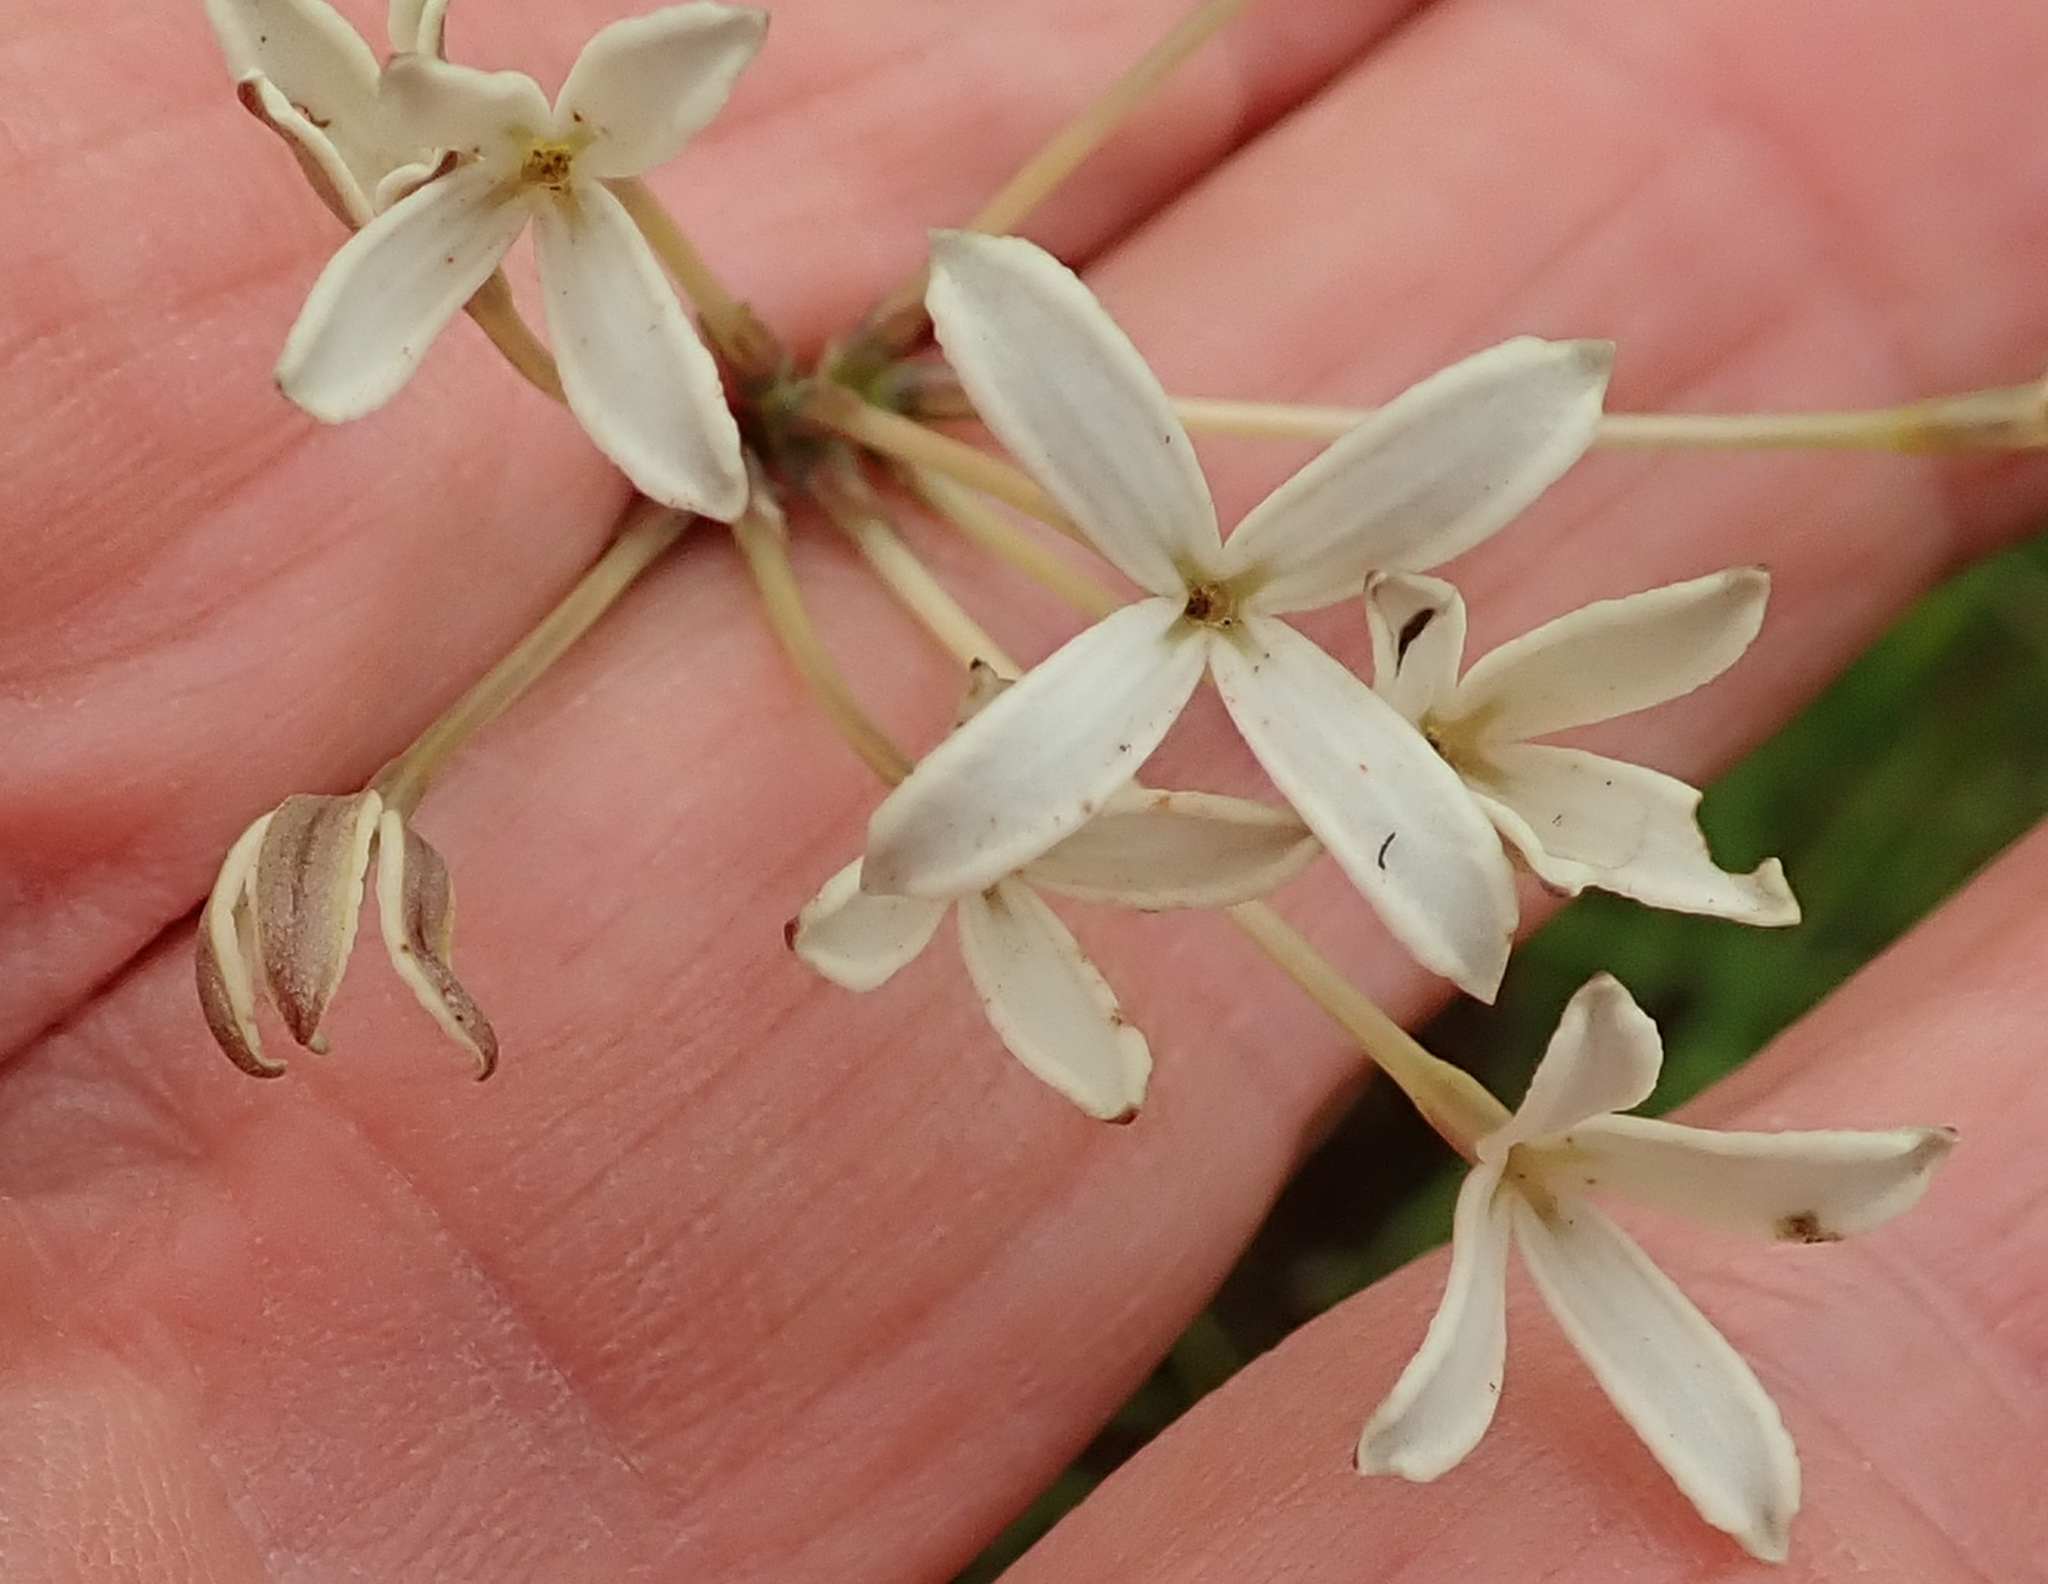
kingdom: Plantae
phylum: Tracheophyta
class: Magnoliopsida
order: Gentianales
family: Rubiaceae
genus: Kohautia
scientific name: Kohautia amatymbica
